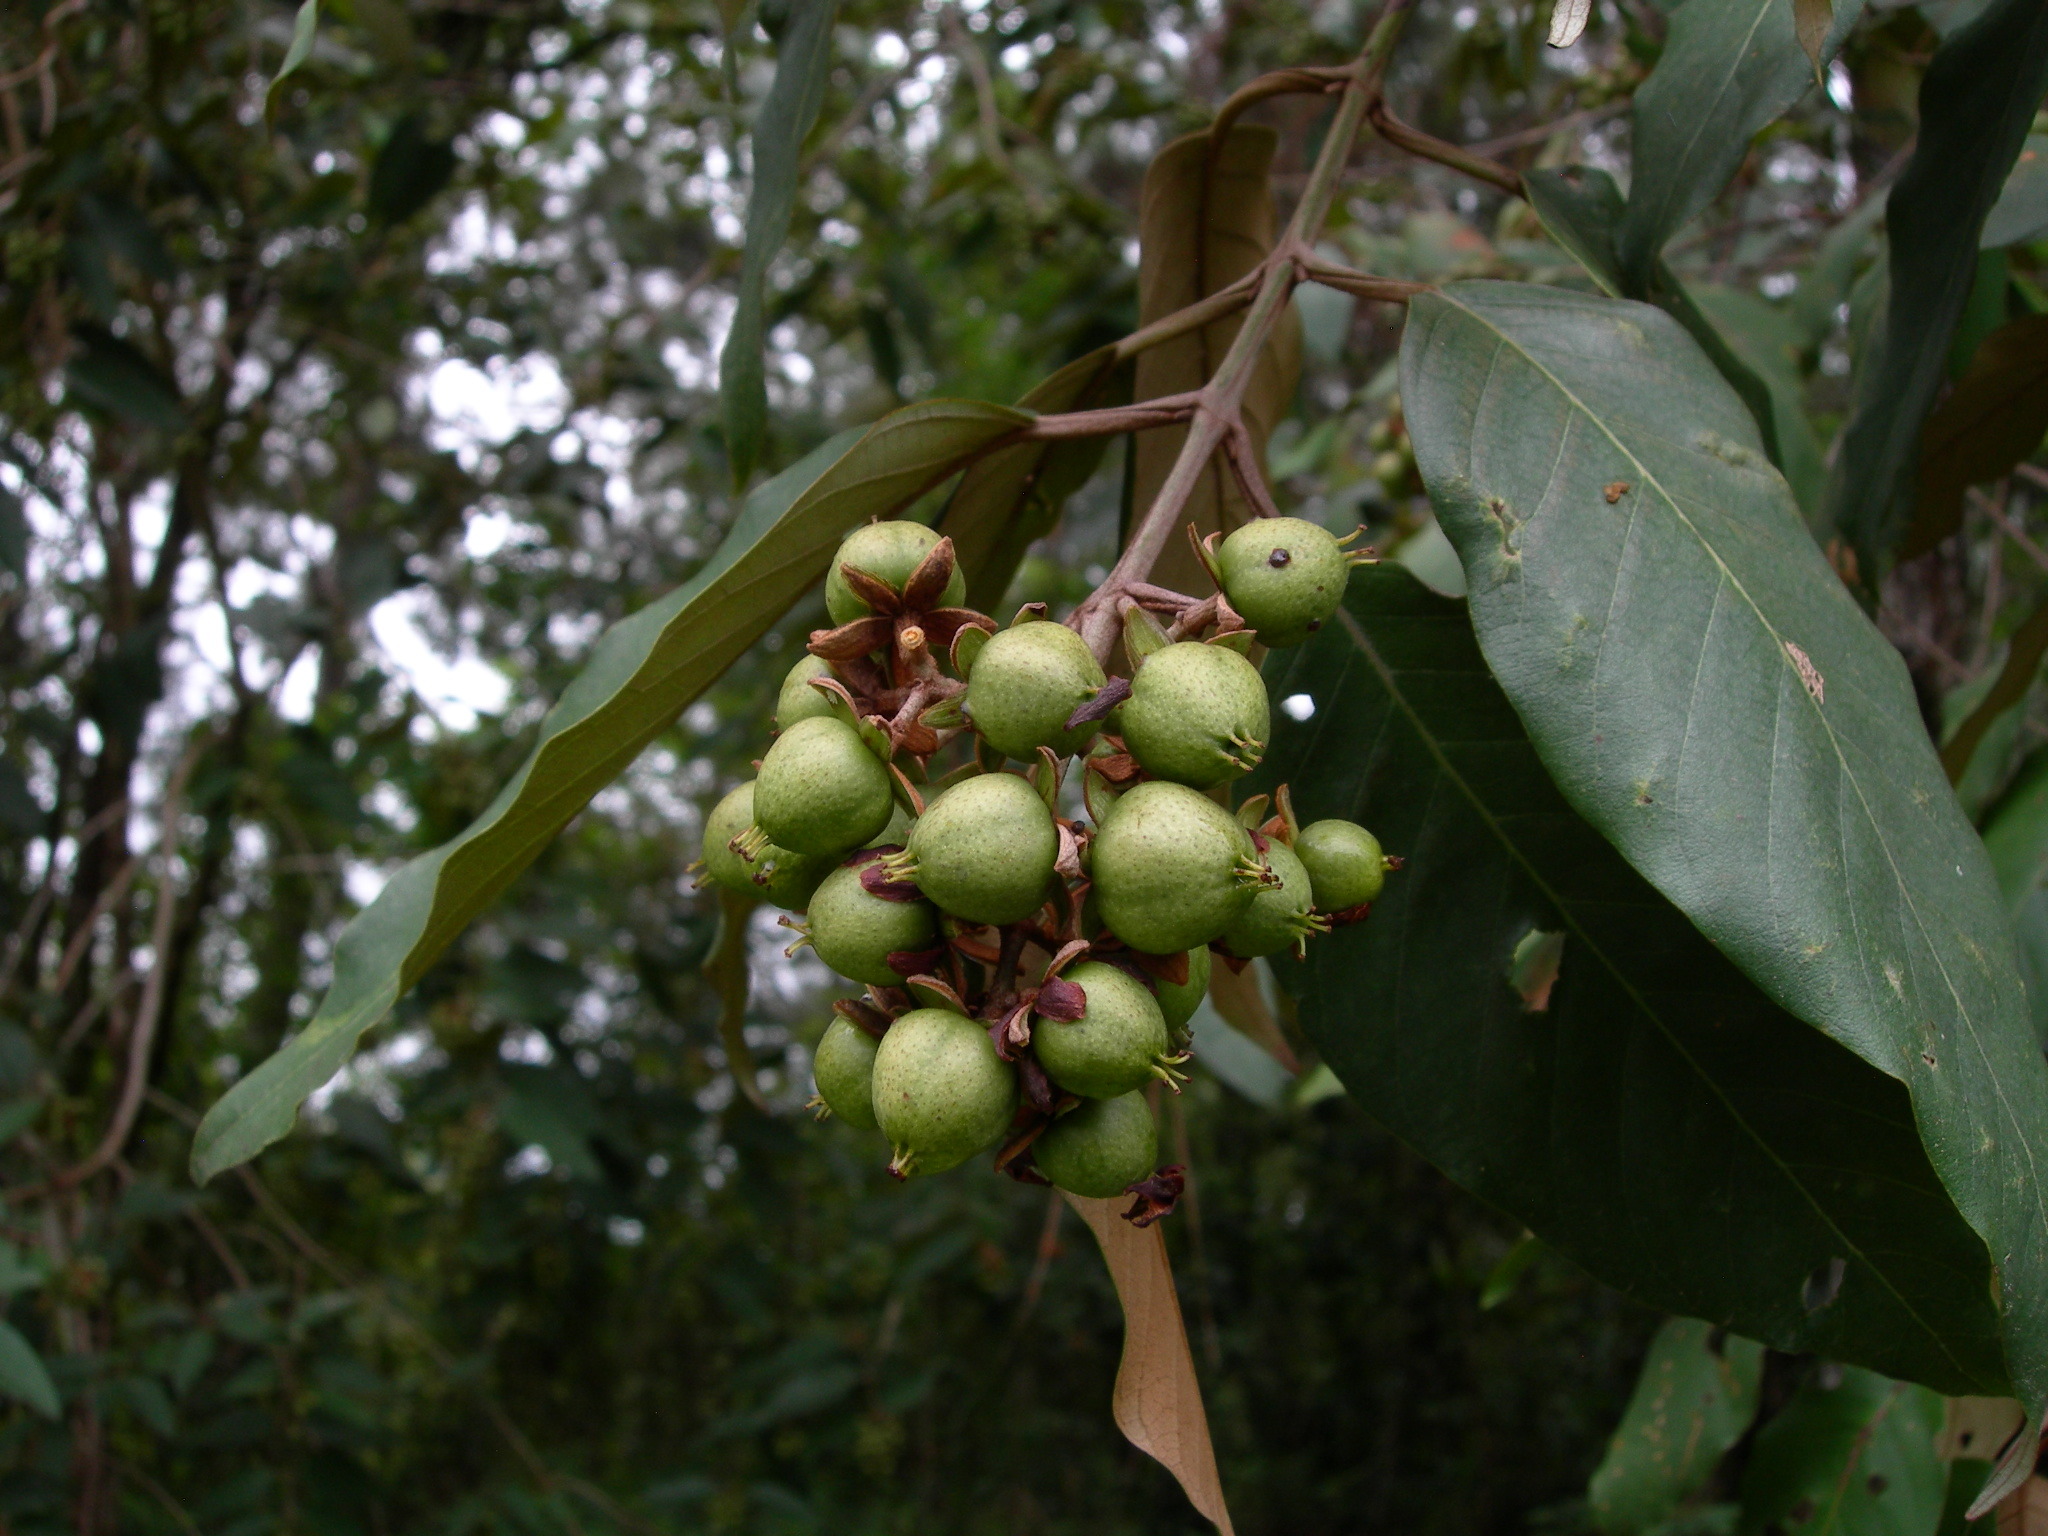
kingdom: Plantae
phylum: Tracheophyta
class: Magnoliopsida
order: Malpighiales
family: Hypericaceae
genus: Vismia
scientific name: Vismia baccifera
